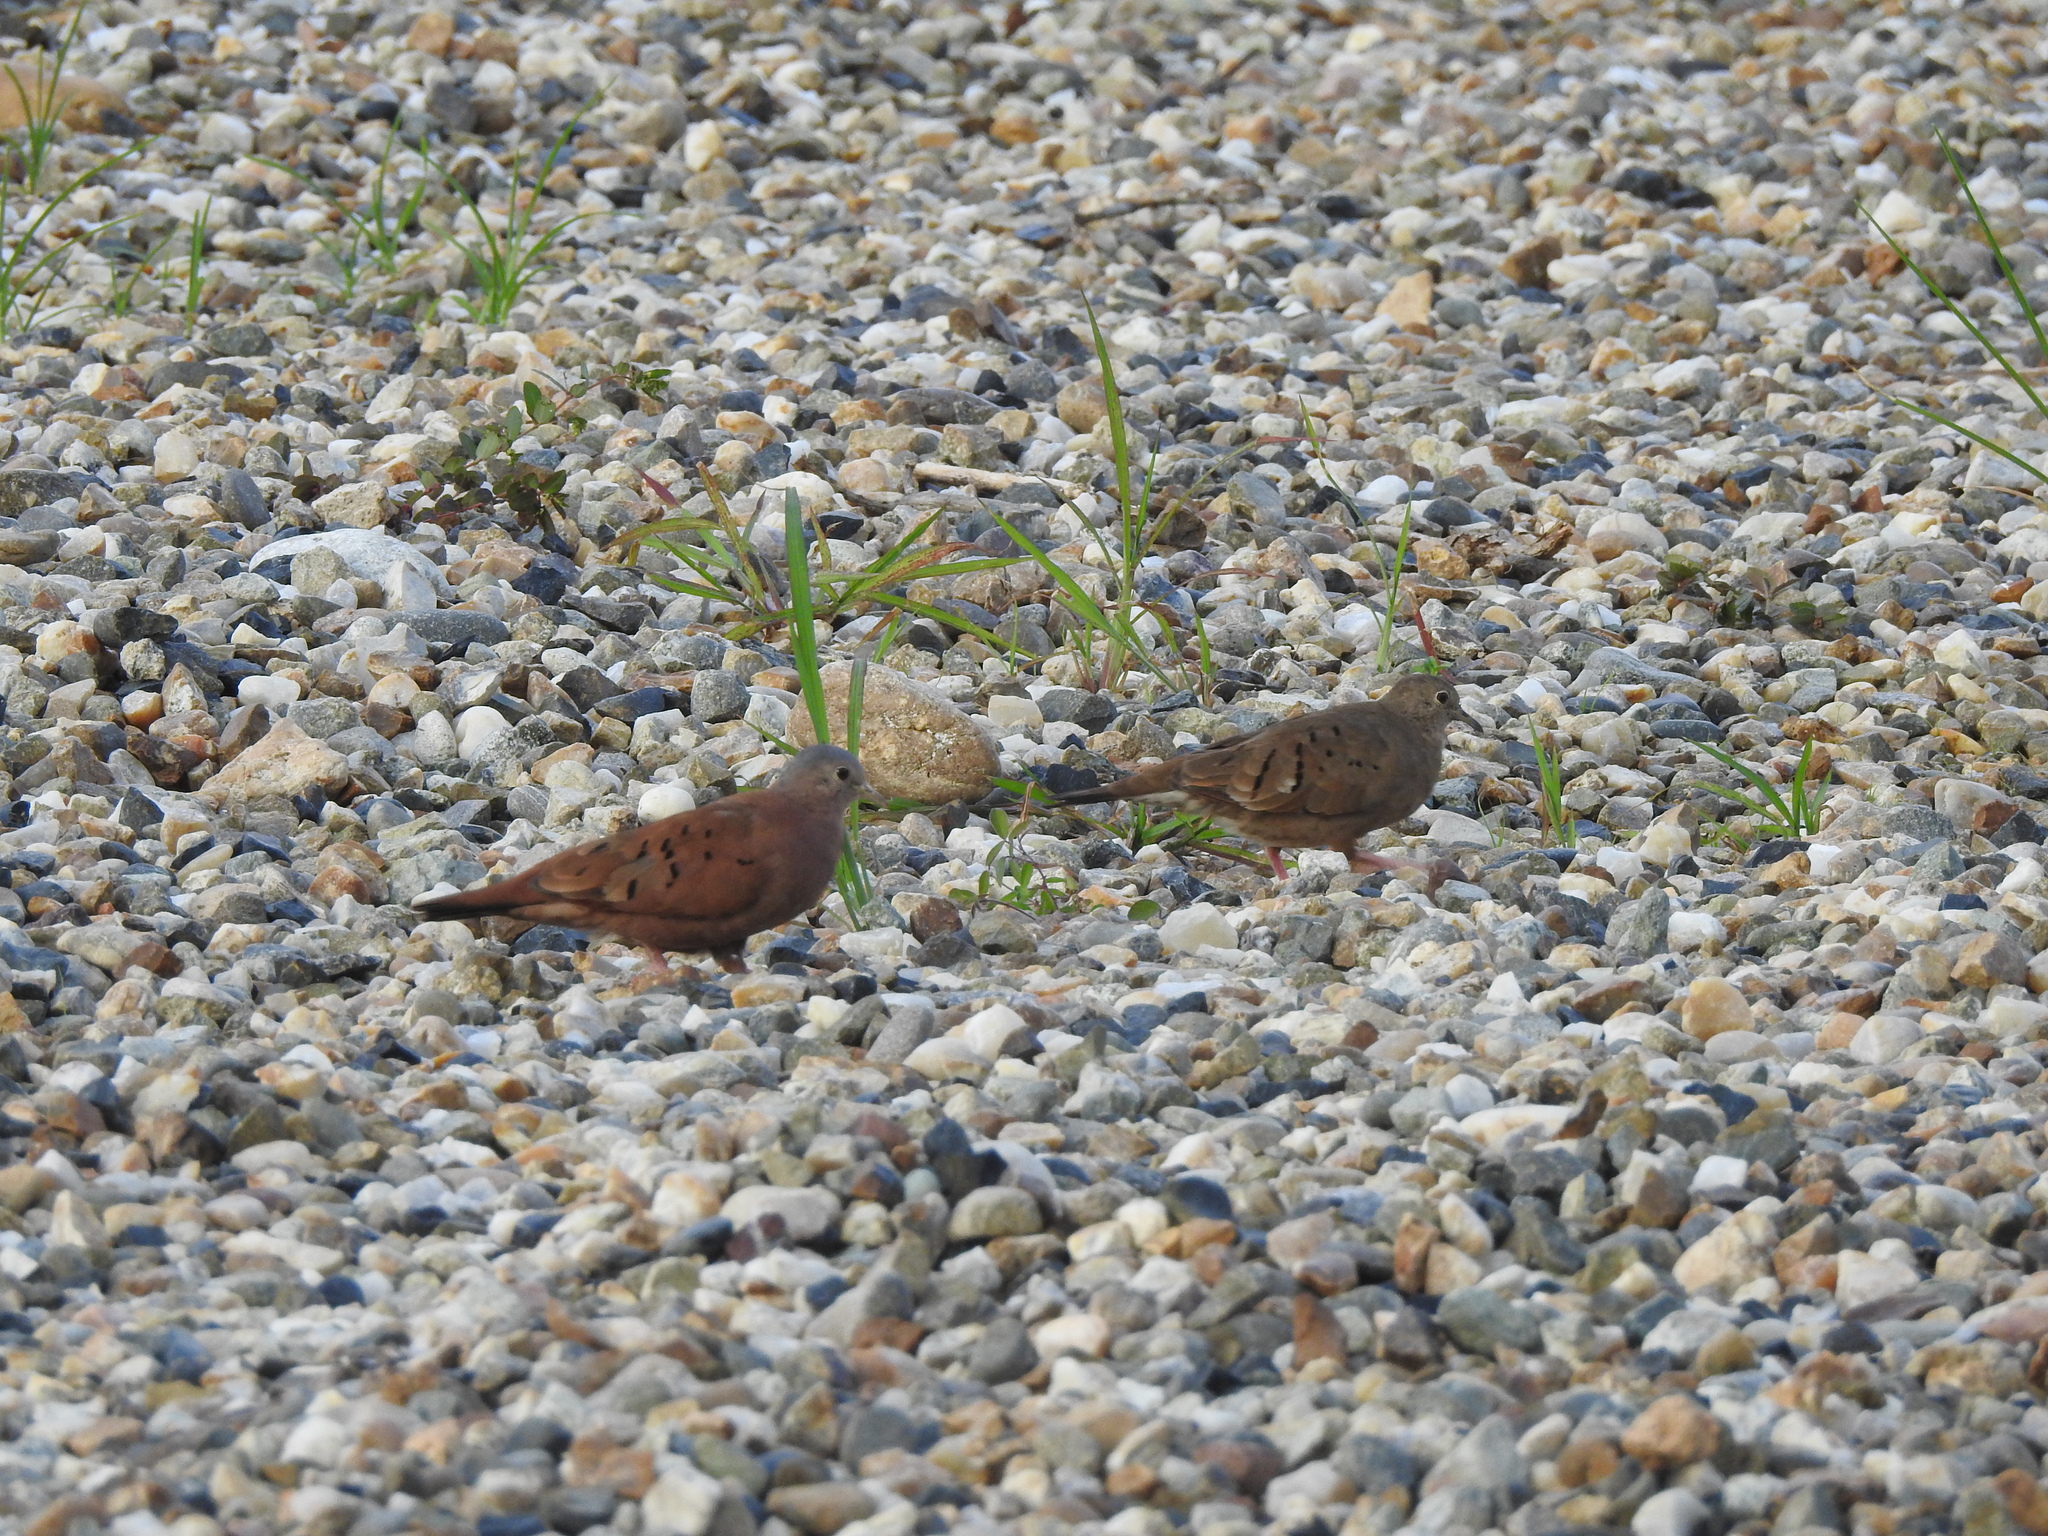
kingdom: Animalia
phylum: Chordata
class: Aves
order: Columbiformes
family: Columbidae
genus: Columbina
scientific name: Columbina talpacoti
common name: Ruddy ground dove
